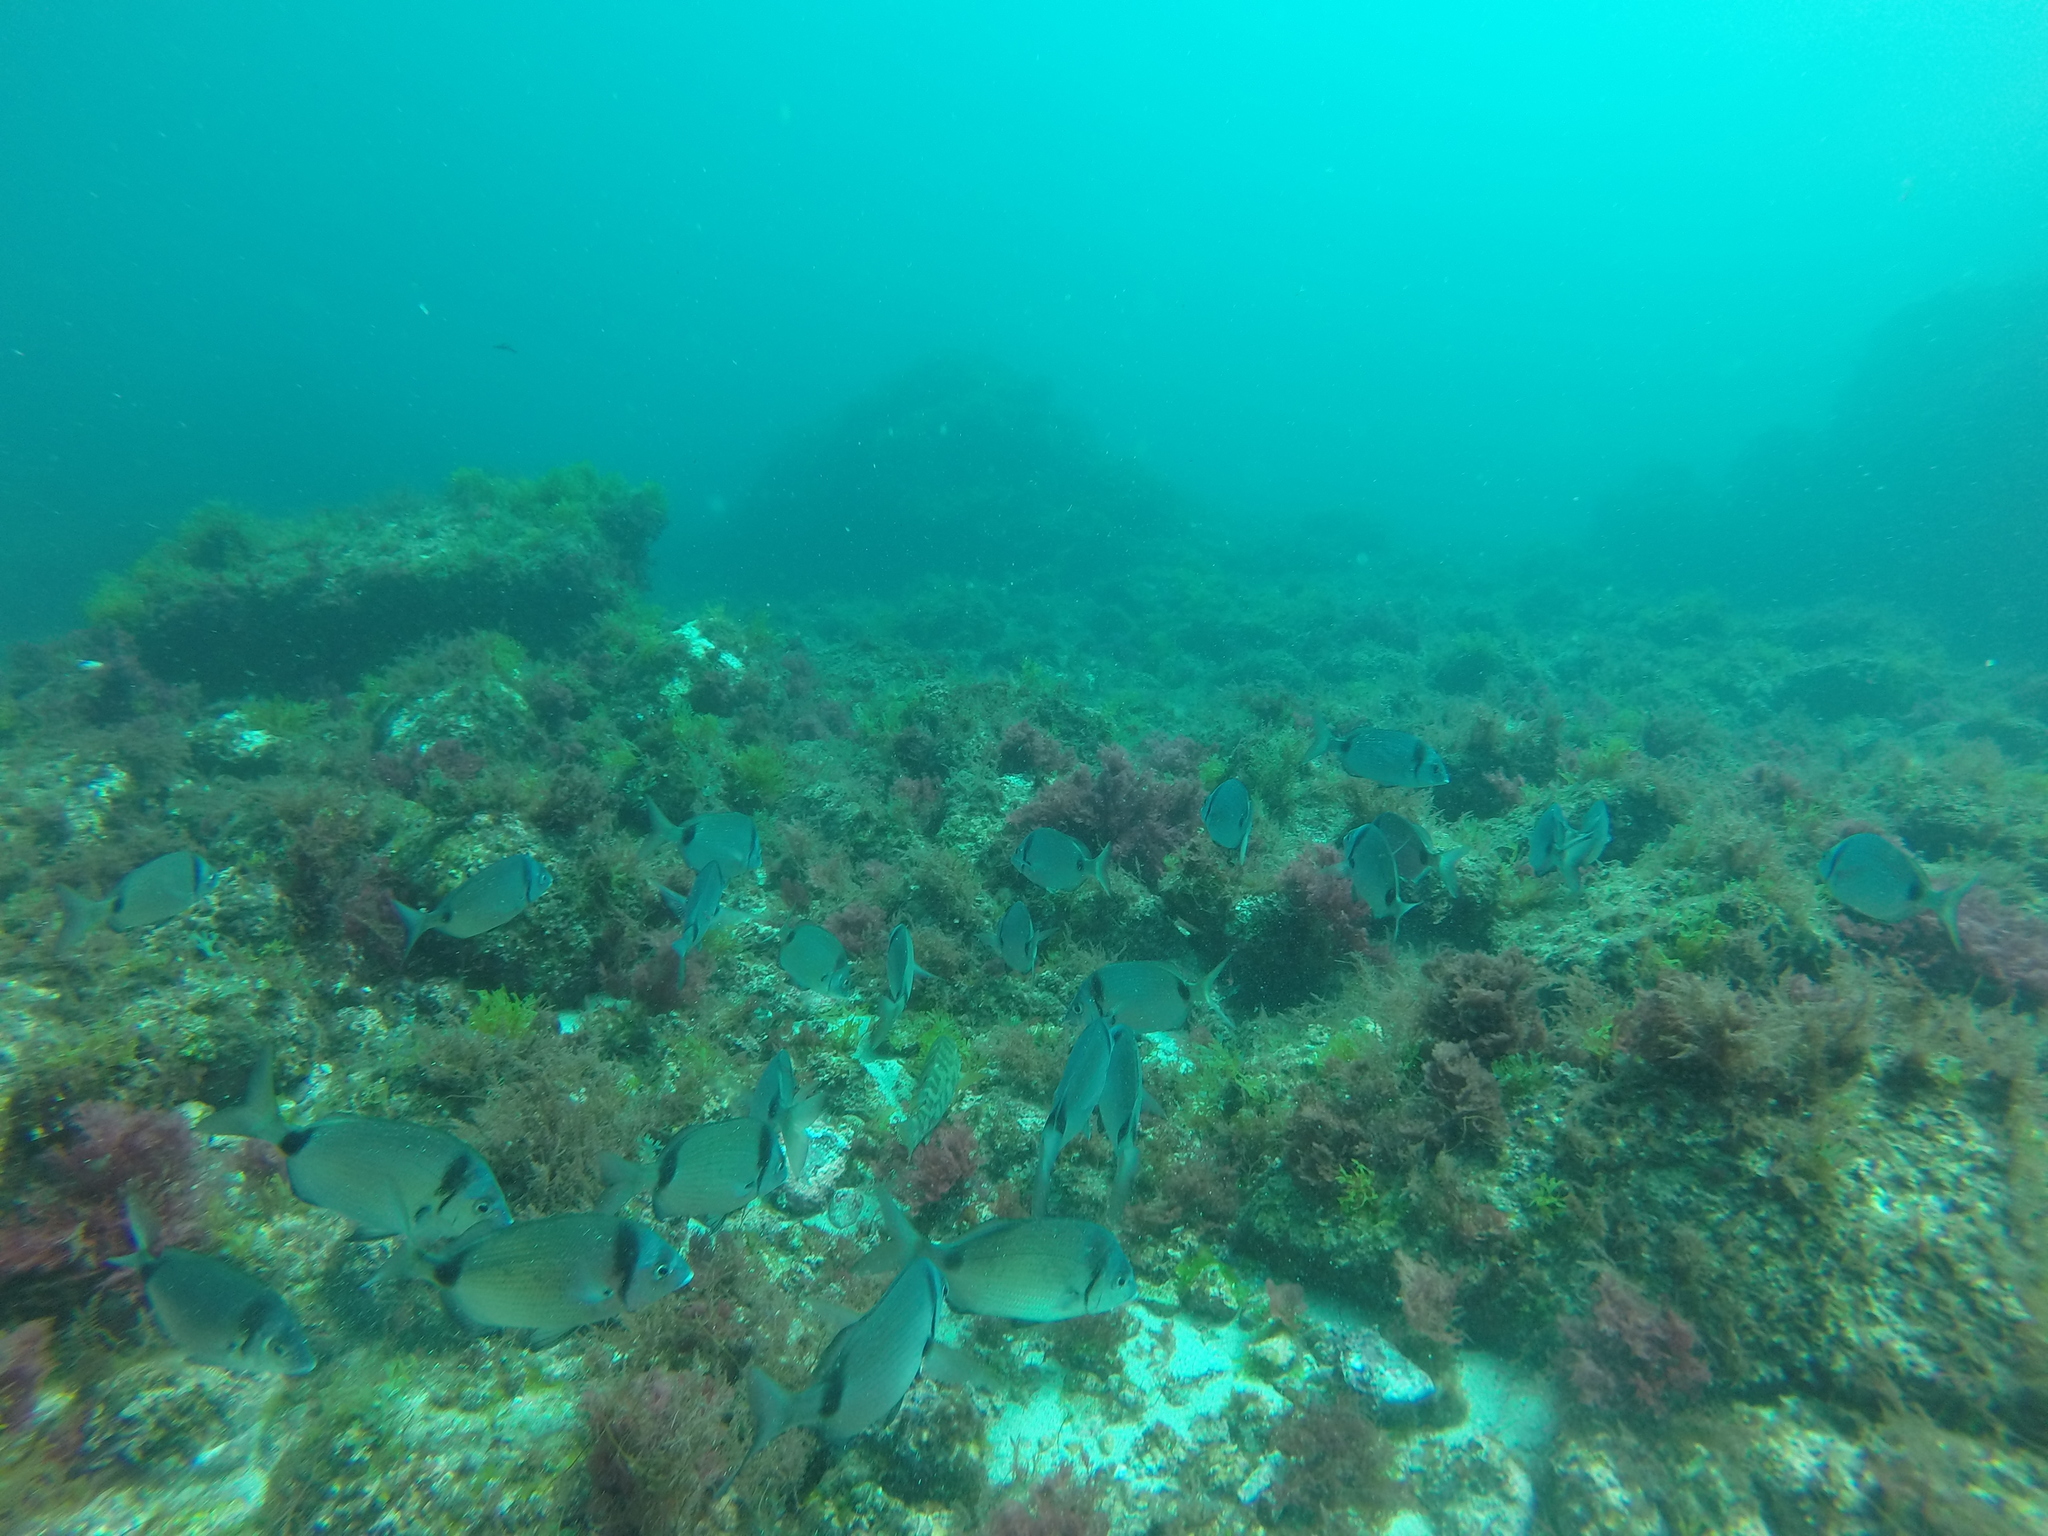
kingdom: Animalia
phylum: Chordata
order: Perciformes
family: Sparidae
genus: Diplodus
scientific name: Diplodus vulgaris
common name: Common two-banded seabream
